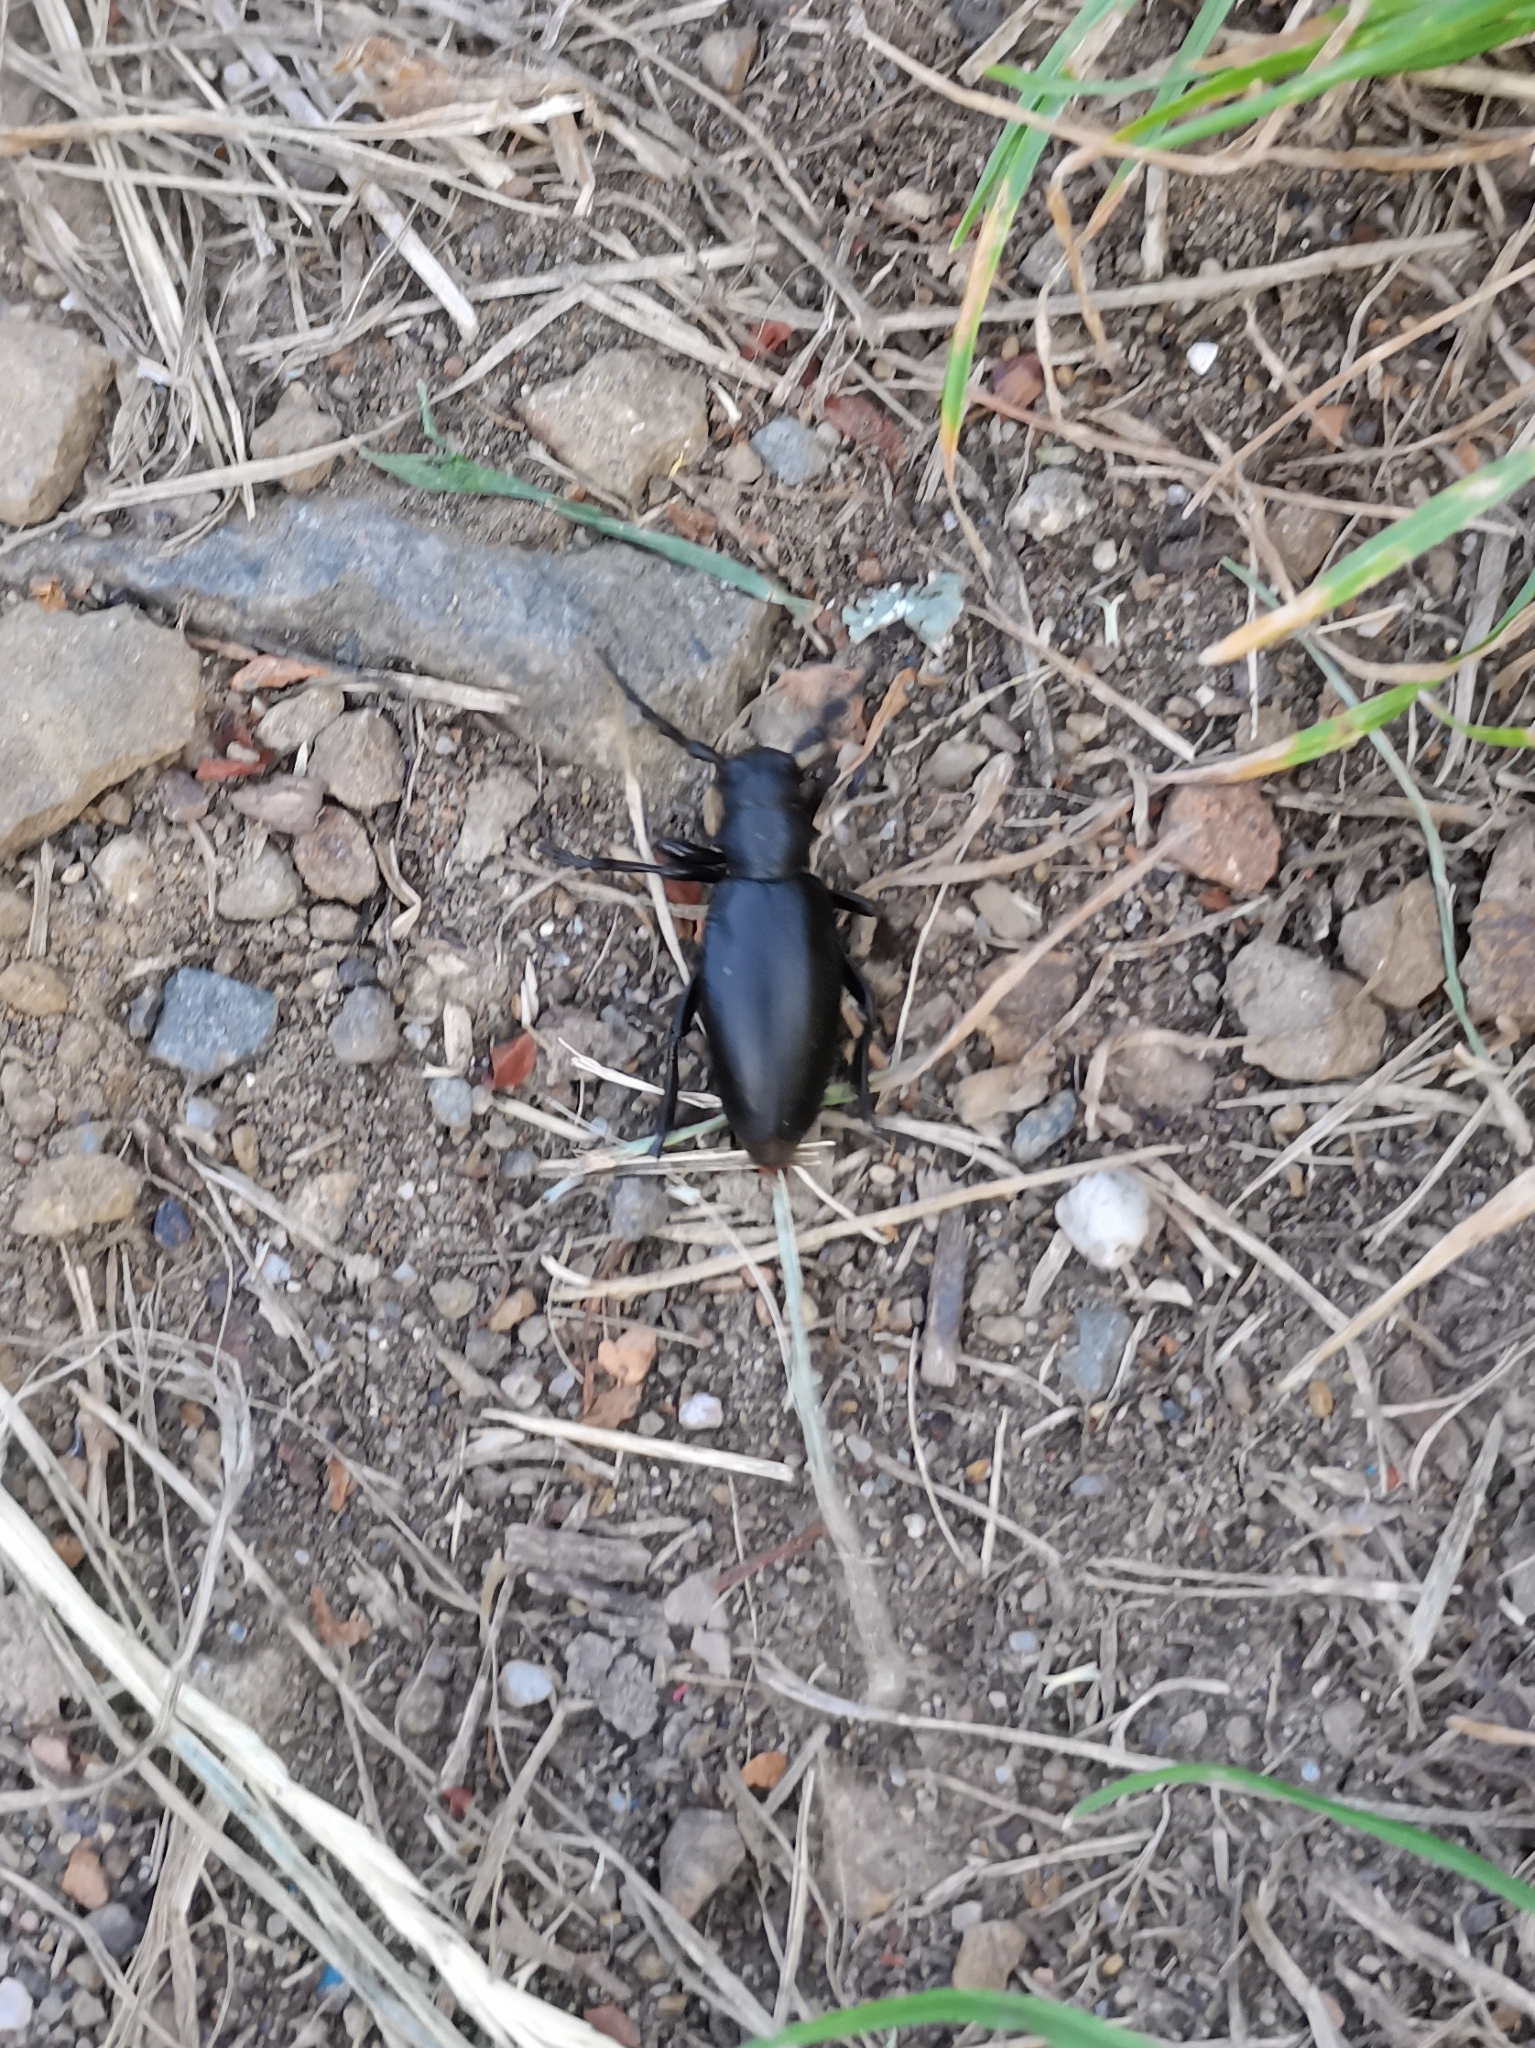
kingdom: Animalia
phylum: Arthropoda
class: Insecta
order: Coleoptera
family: Cerambycidae
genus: Dorcadion
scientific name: Dorcadion aethiops
